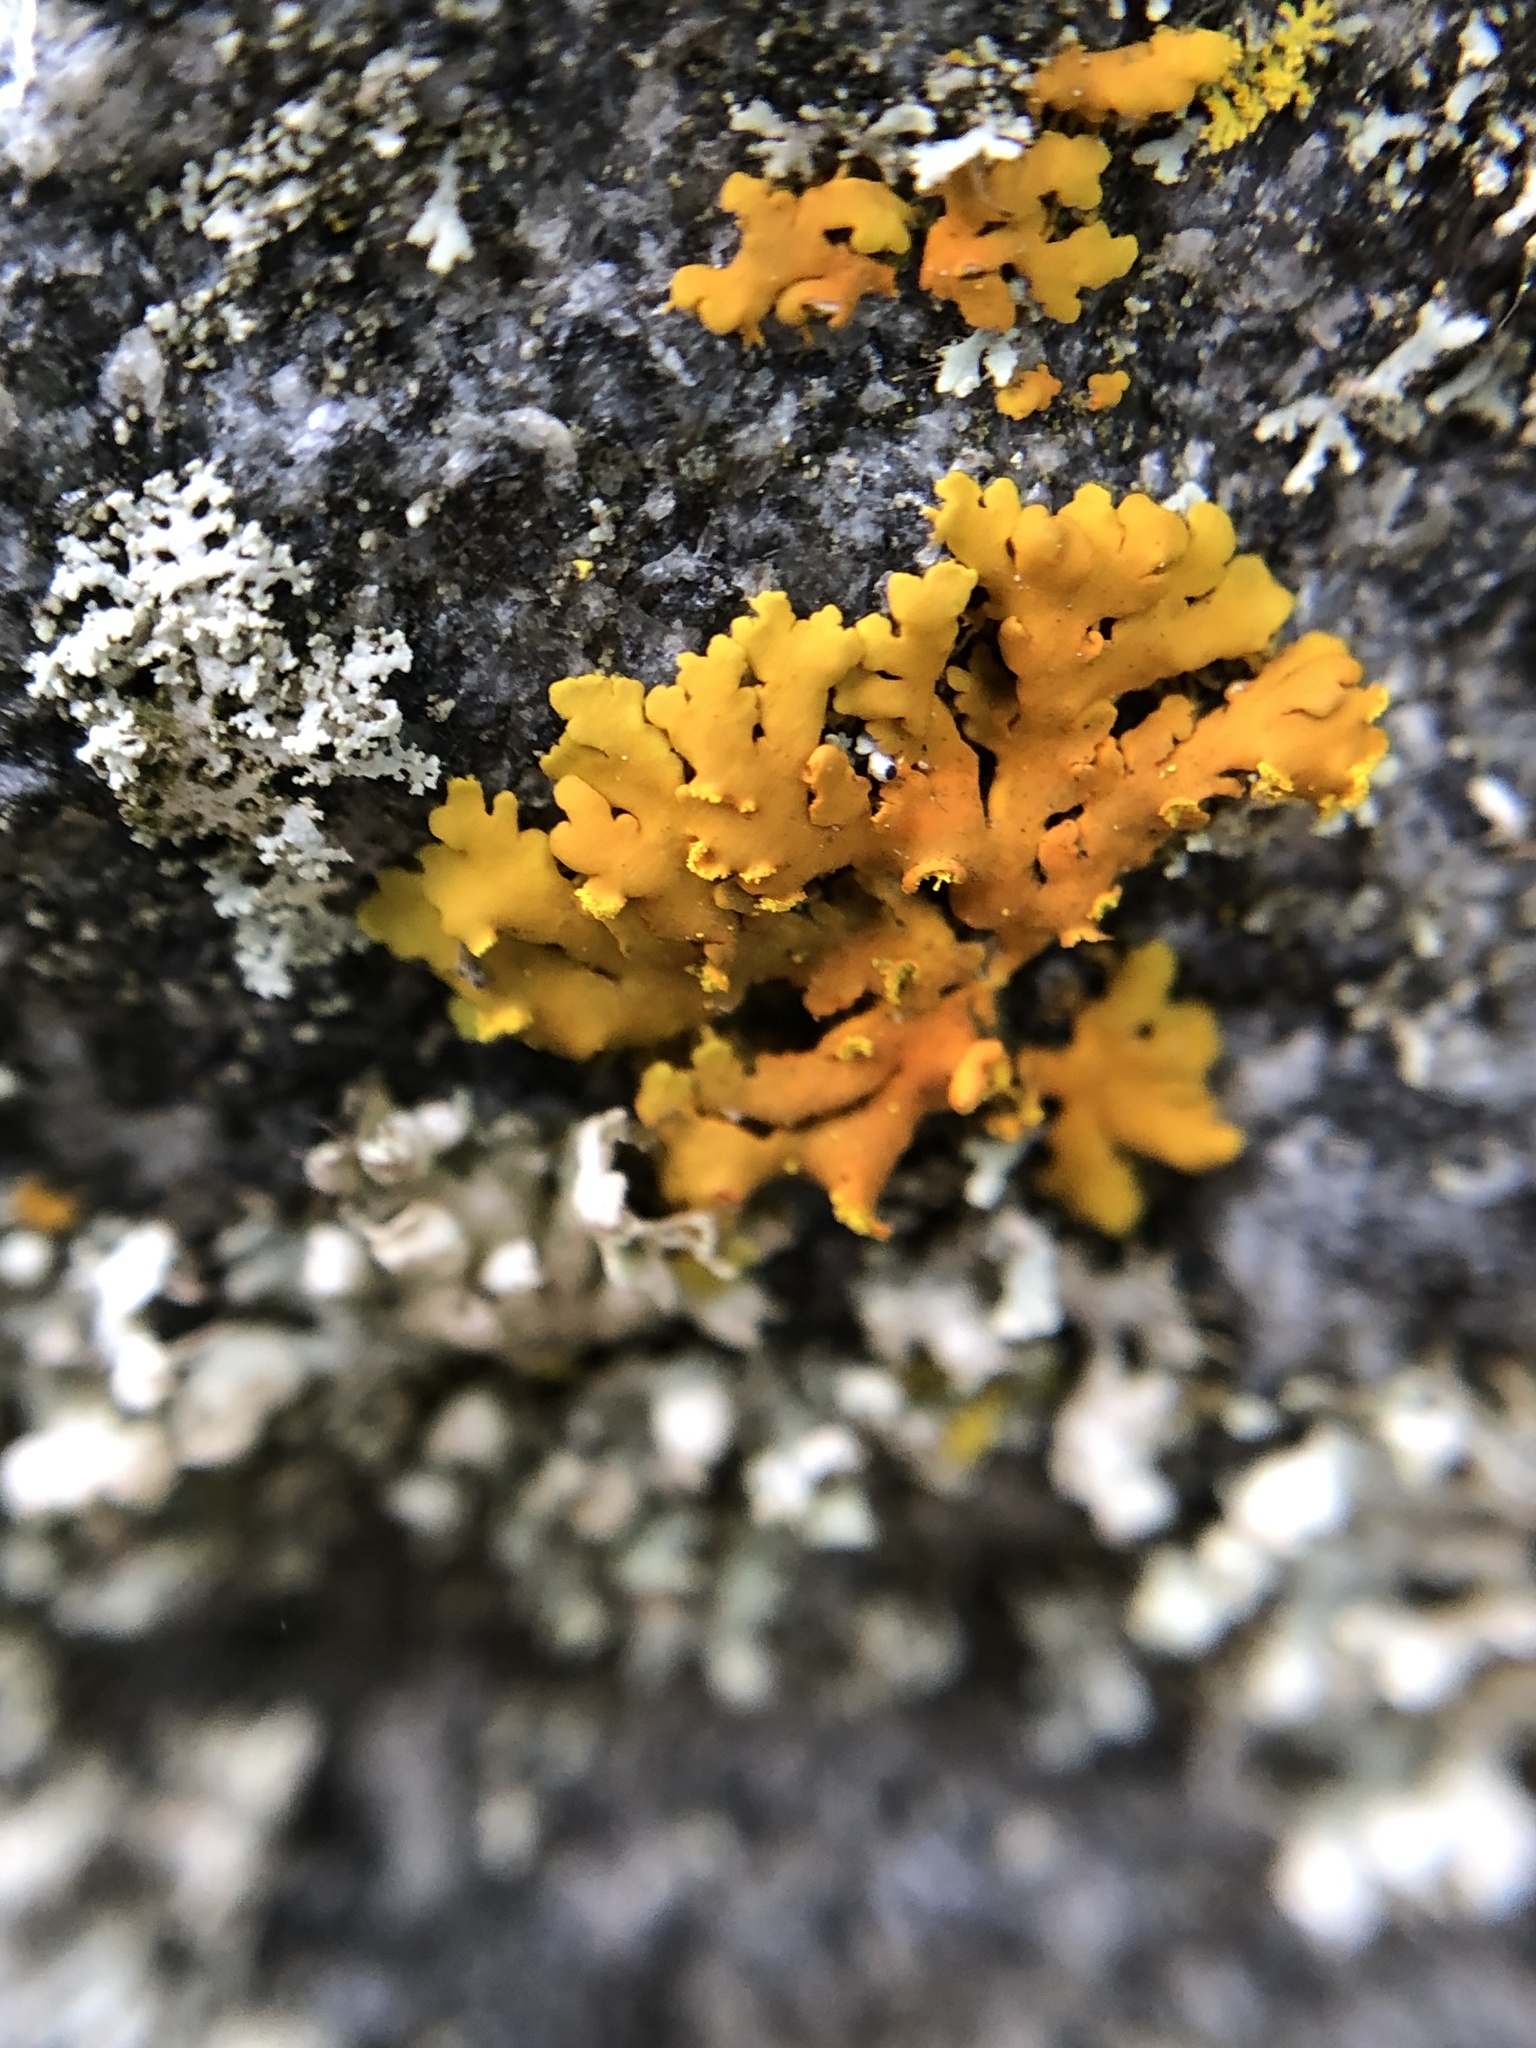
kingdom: Fungi
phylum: Ascomycota
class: Lecanoromycetes
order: Teloschistales
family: Teloschistaceae
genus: Oxneria
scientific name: Oxneria fallax
